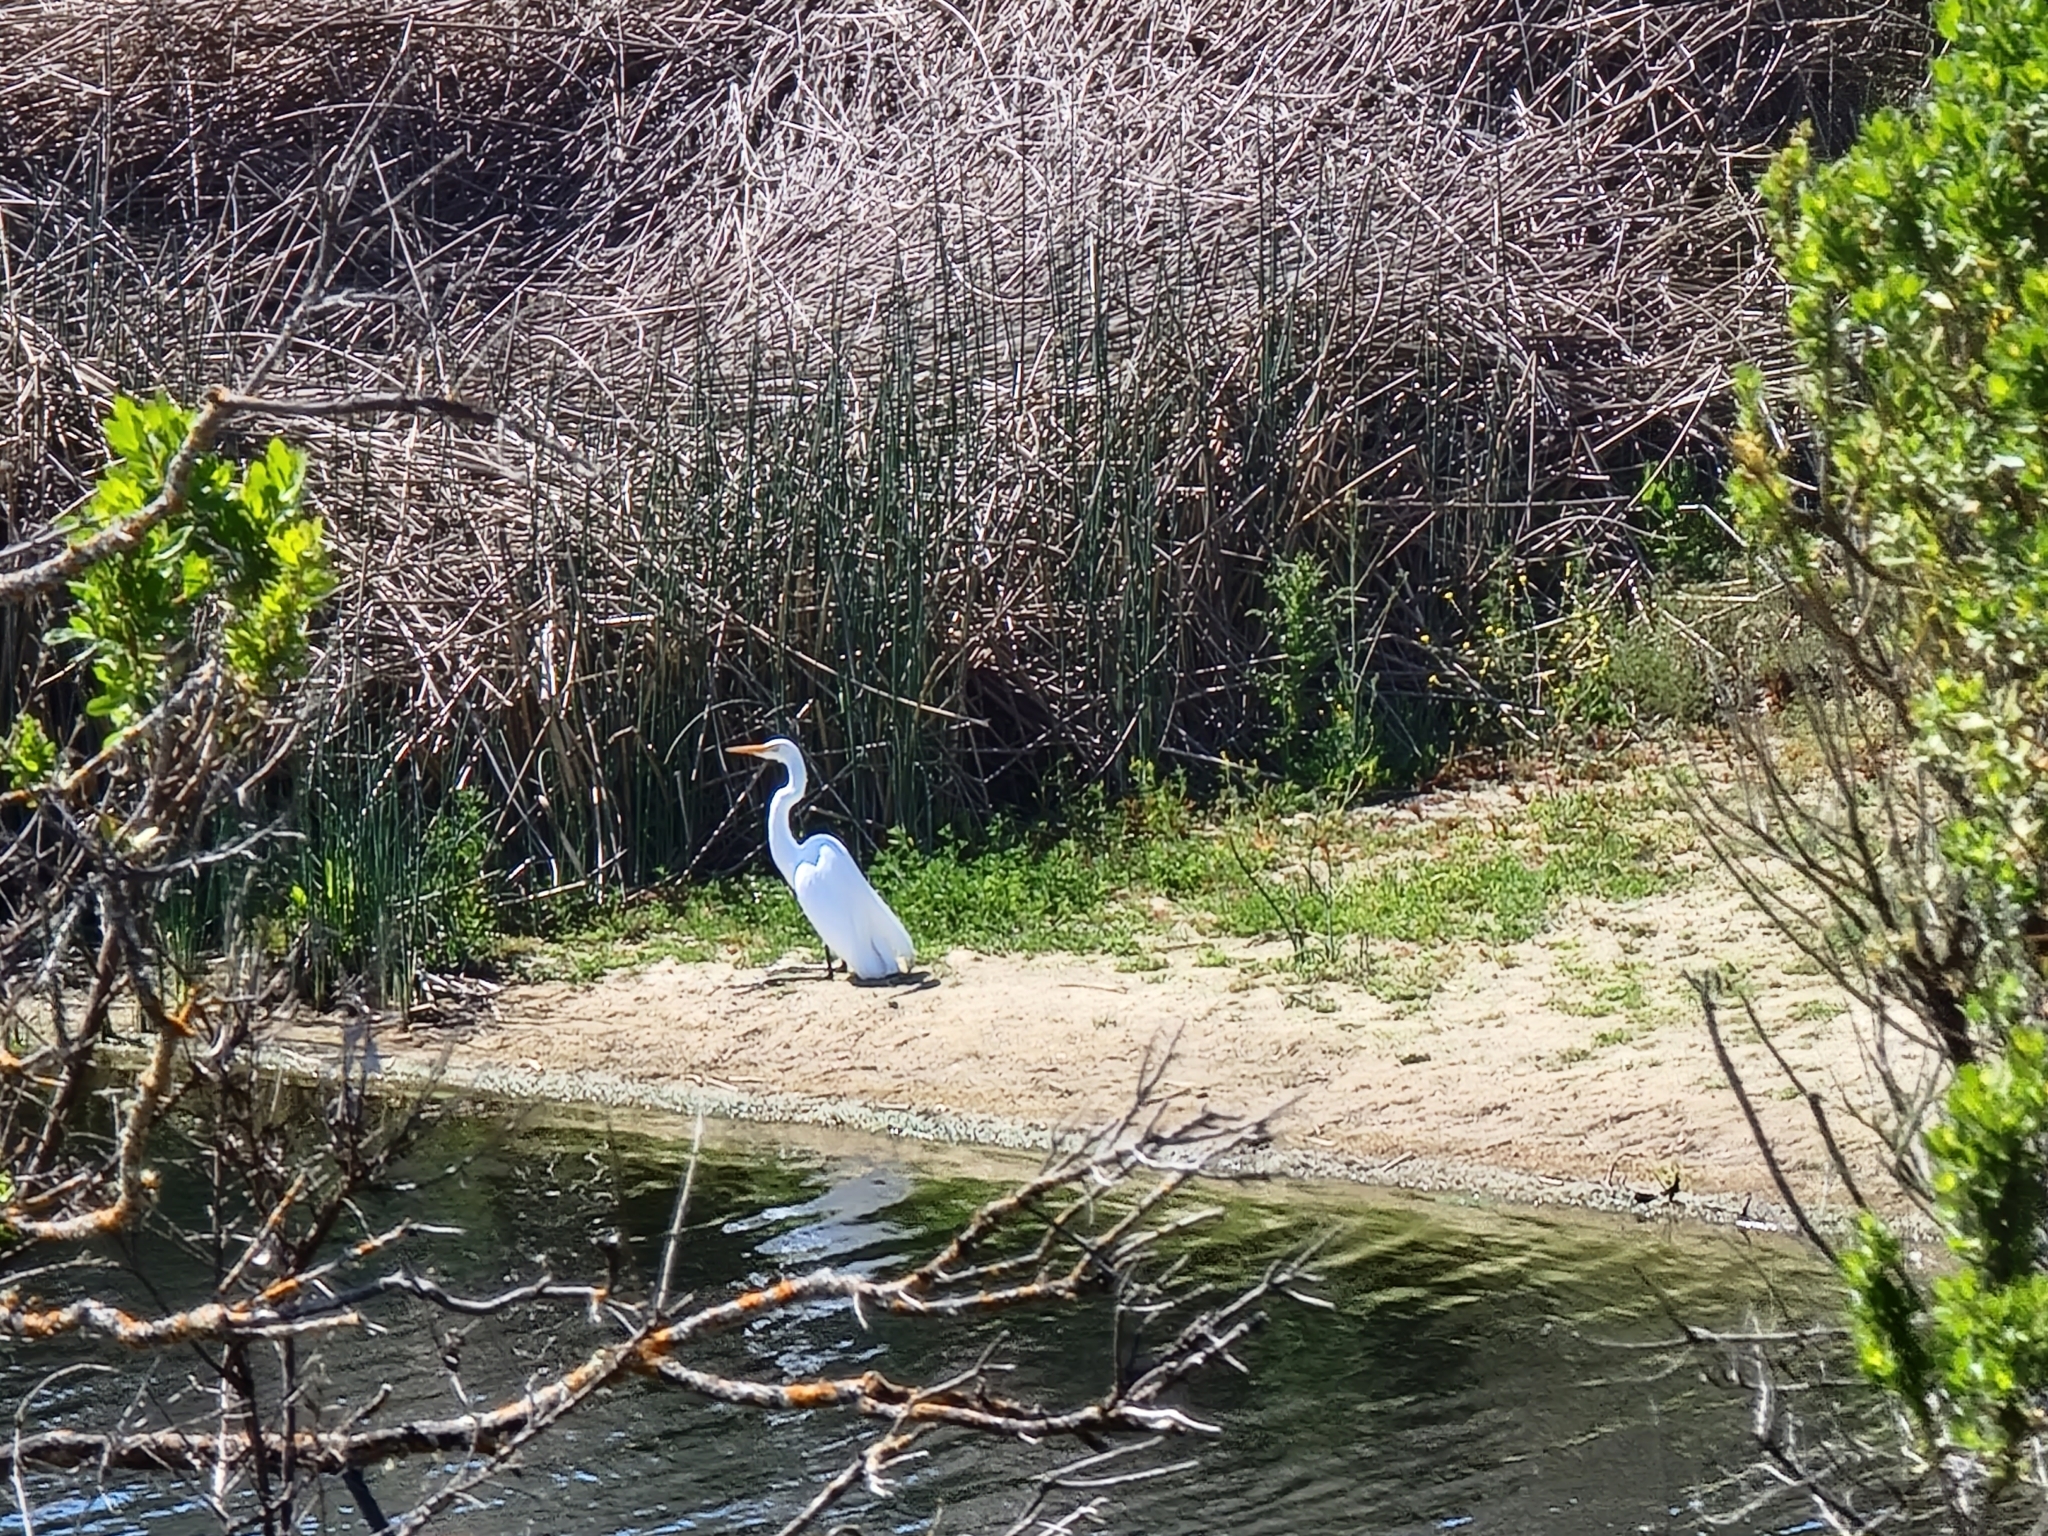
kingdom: Animalia
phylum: Chordata
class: Aves
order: Pelecaniformes
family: Ardeidae
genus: Ardea
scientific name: Ardea alba
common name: Great egret
